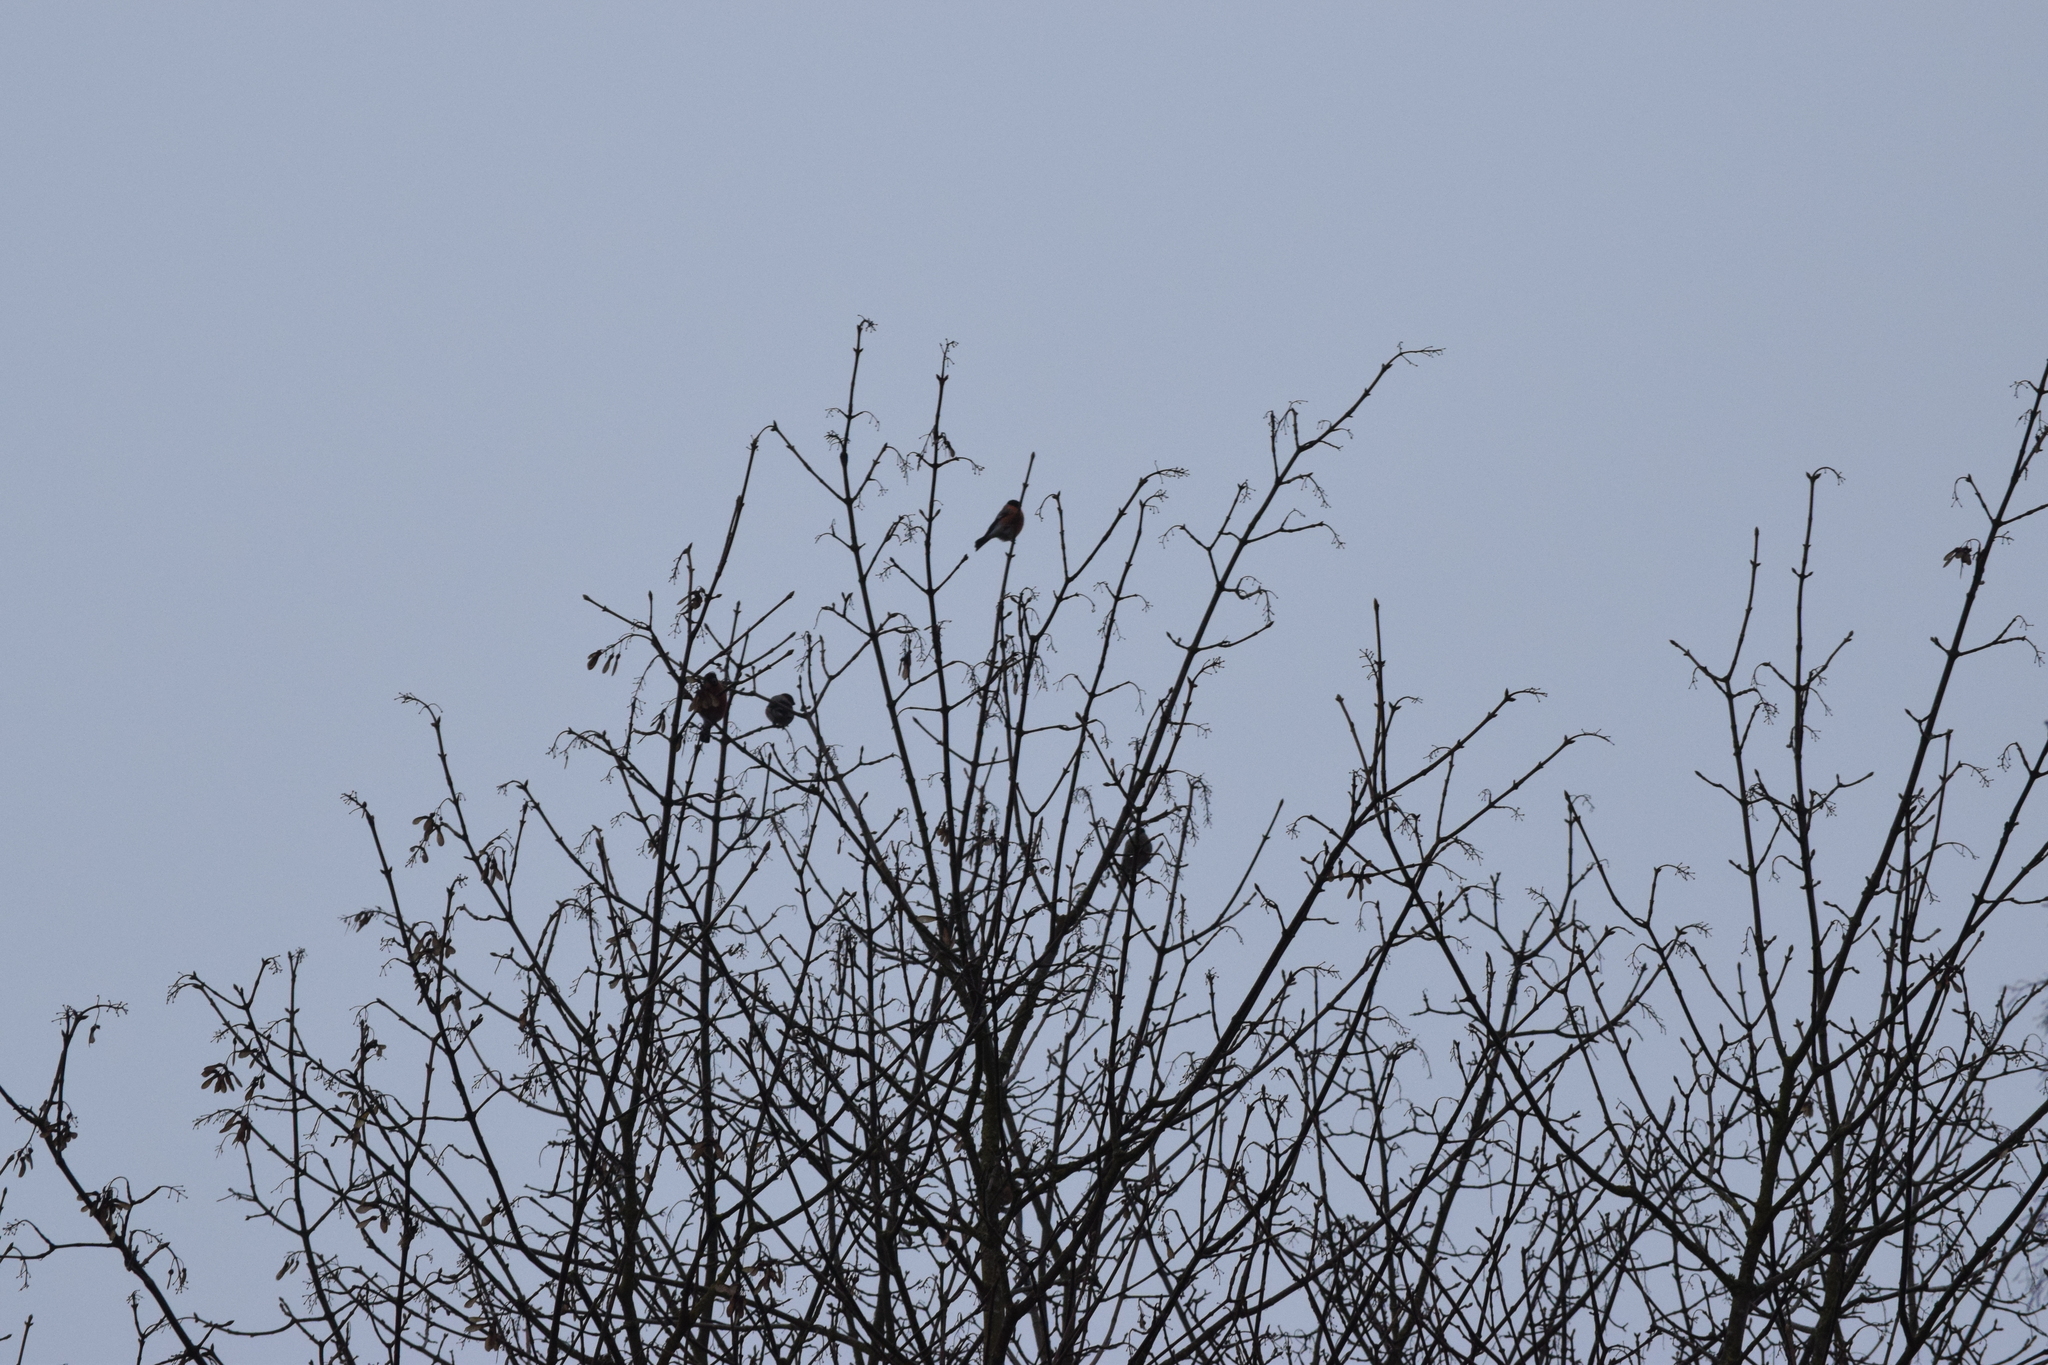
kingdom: Animalia
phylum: Chordata
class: Aves
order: Passeriformes
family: Fringillidae
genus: Pyrrhula
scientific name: Pyrrhula pyrrhula
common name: Eurasian bullfinch
